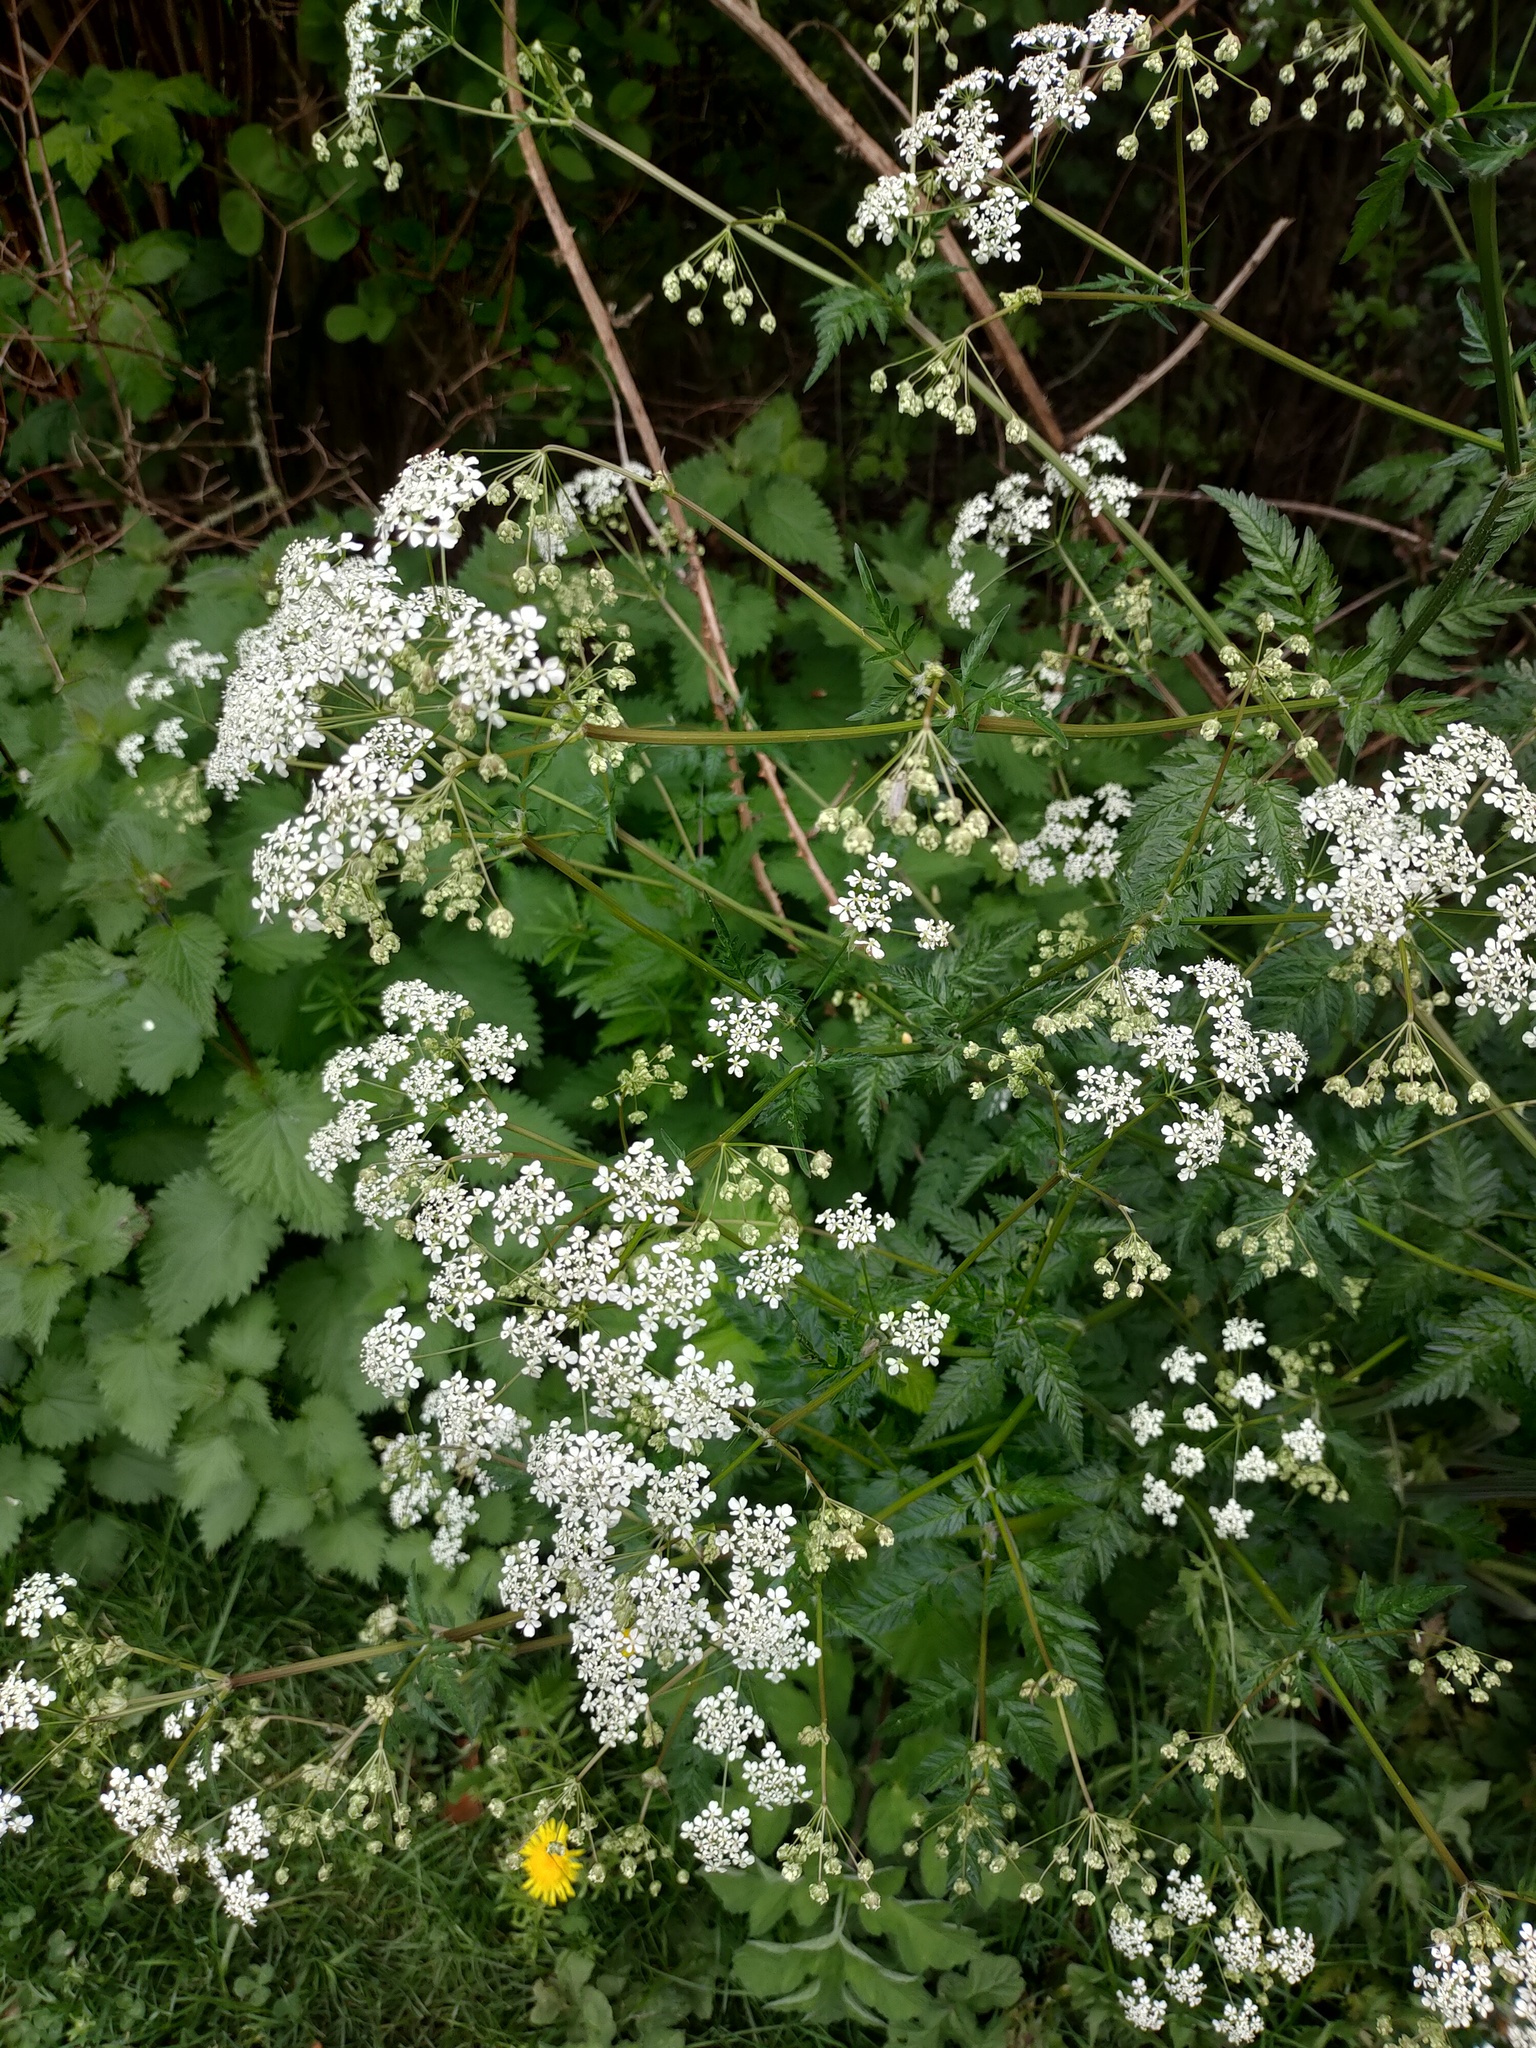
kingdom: Plantae
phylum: Tracheophyta
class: Magnoliopsida
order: Apiales
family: Apiaceae
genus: Anthriscus
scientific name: Anthriscus sylvestris
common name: Cow parsley
